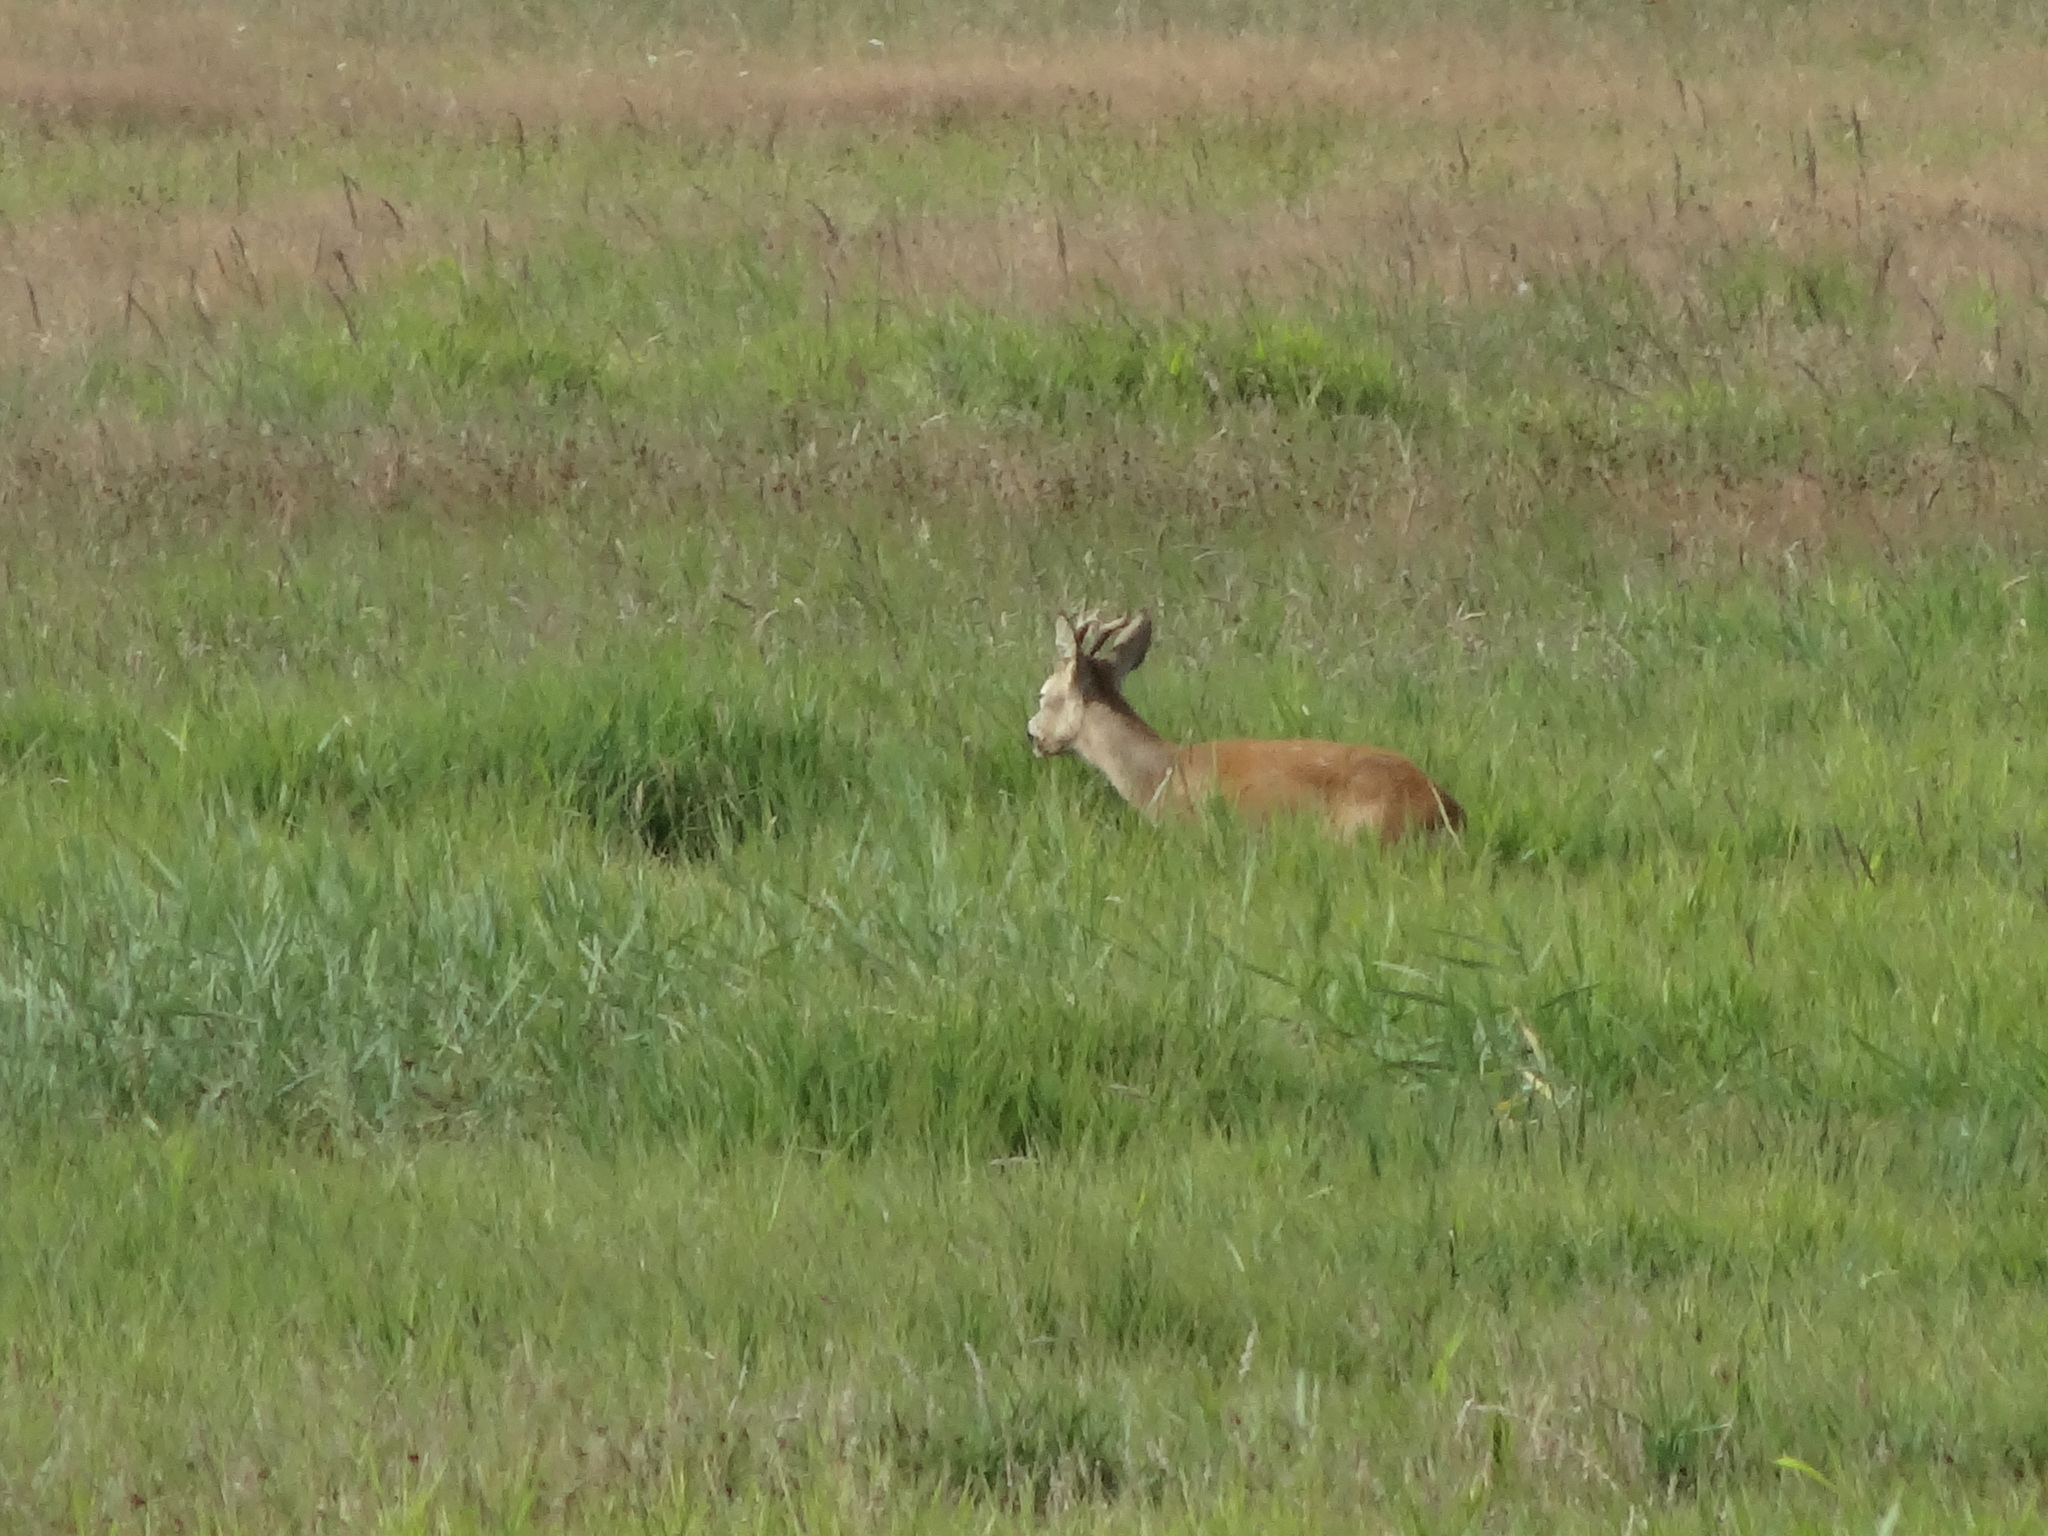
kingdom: Animalia
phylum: Chordata
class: Mammalia
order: Artiodactyla
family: Cervidae
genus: Capreolus
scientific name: Capreolus capreolus
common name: Western roe deer
